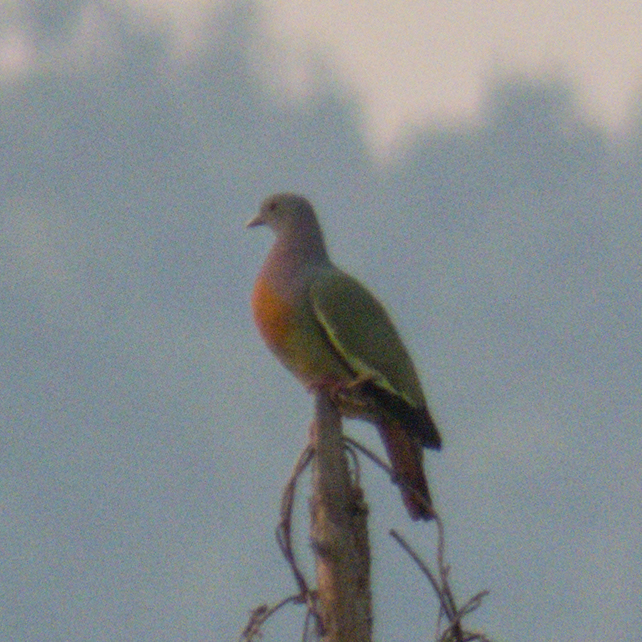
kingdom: Animalia
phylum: Chordata
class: Aves
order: Columbiformes
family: Columbidae
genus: Treron
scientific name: Treron vernans
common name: Pink-necked green pigeon
